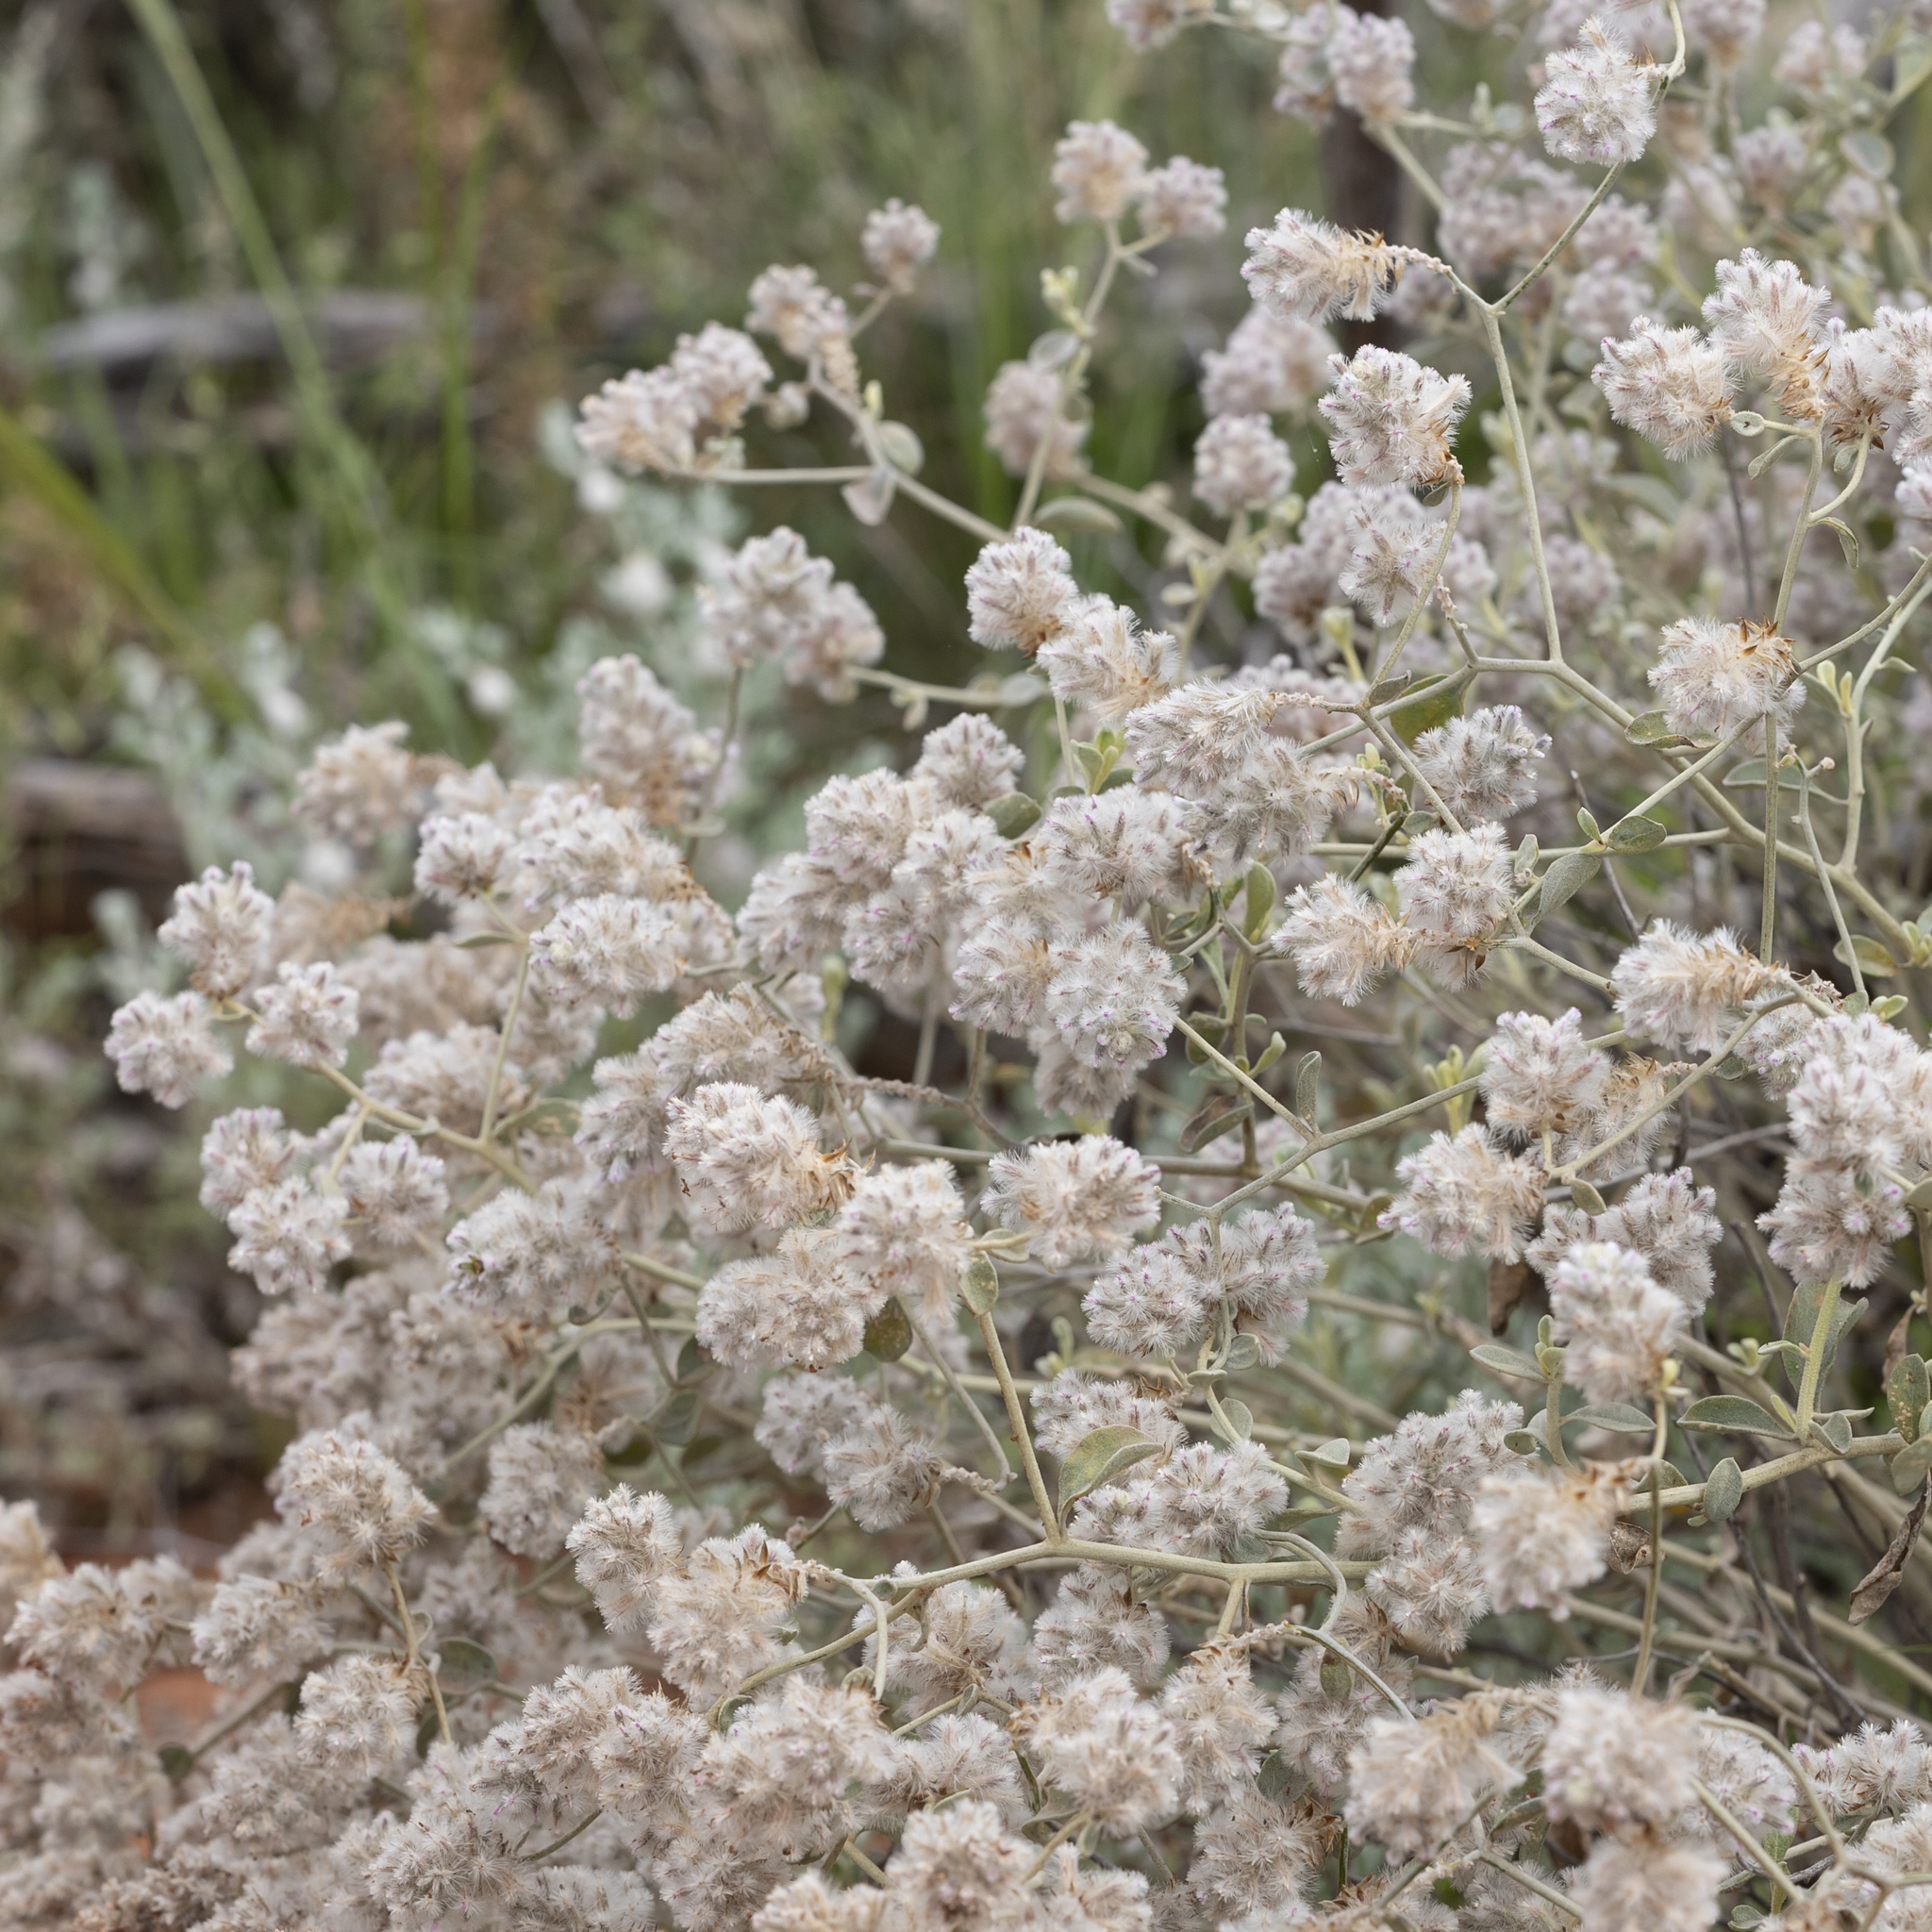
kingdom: Plantae
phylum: Tracheophyta
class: Magnoliopsida
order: Caryophyllales
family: Amaranthaceae
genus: Ptilotus
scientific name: Ptilotus obovatus
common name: Cottonbush
